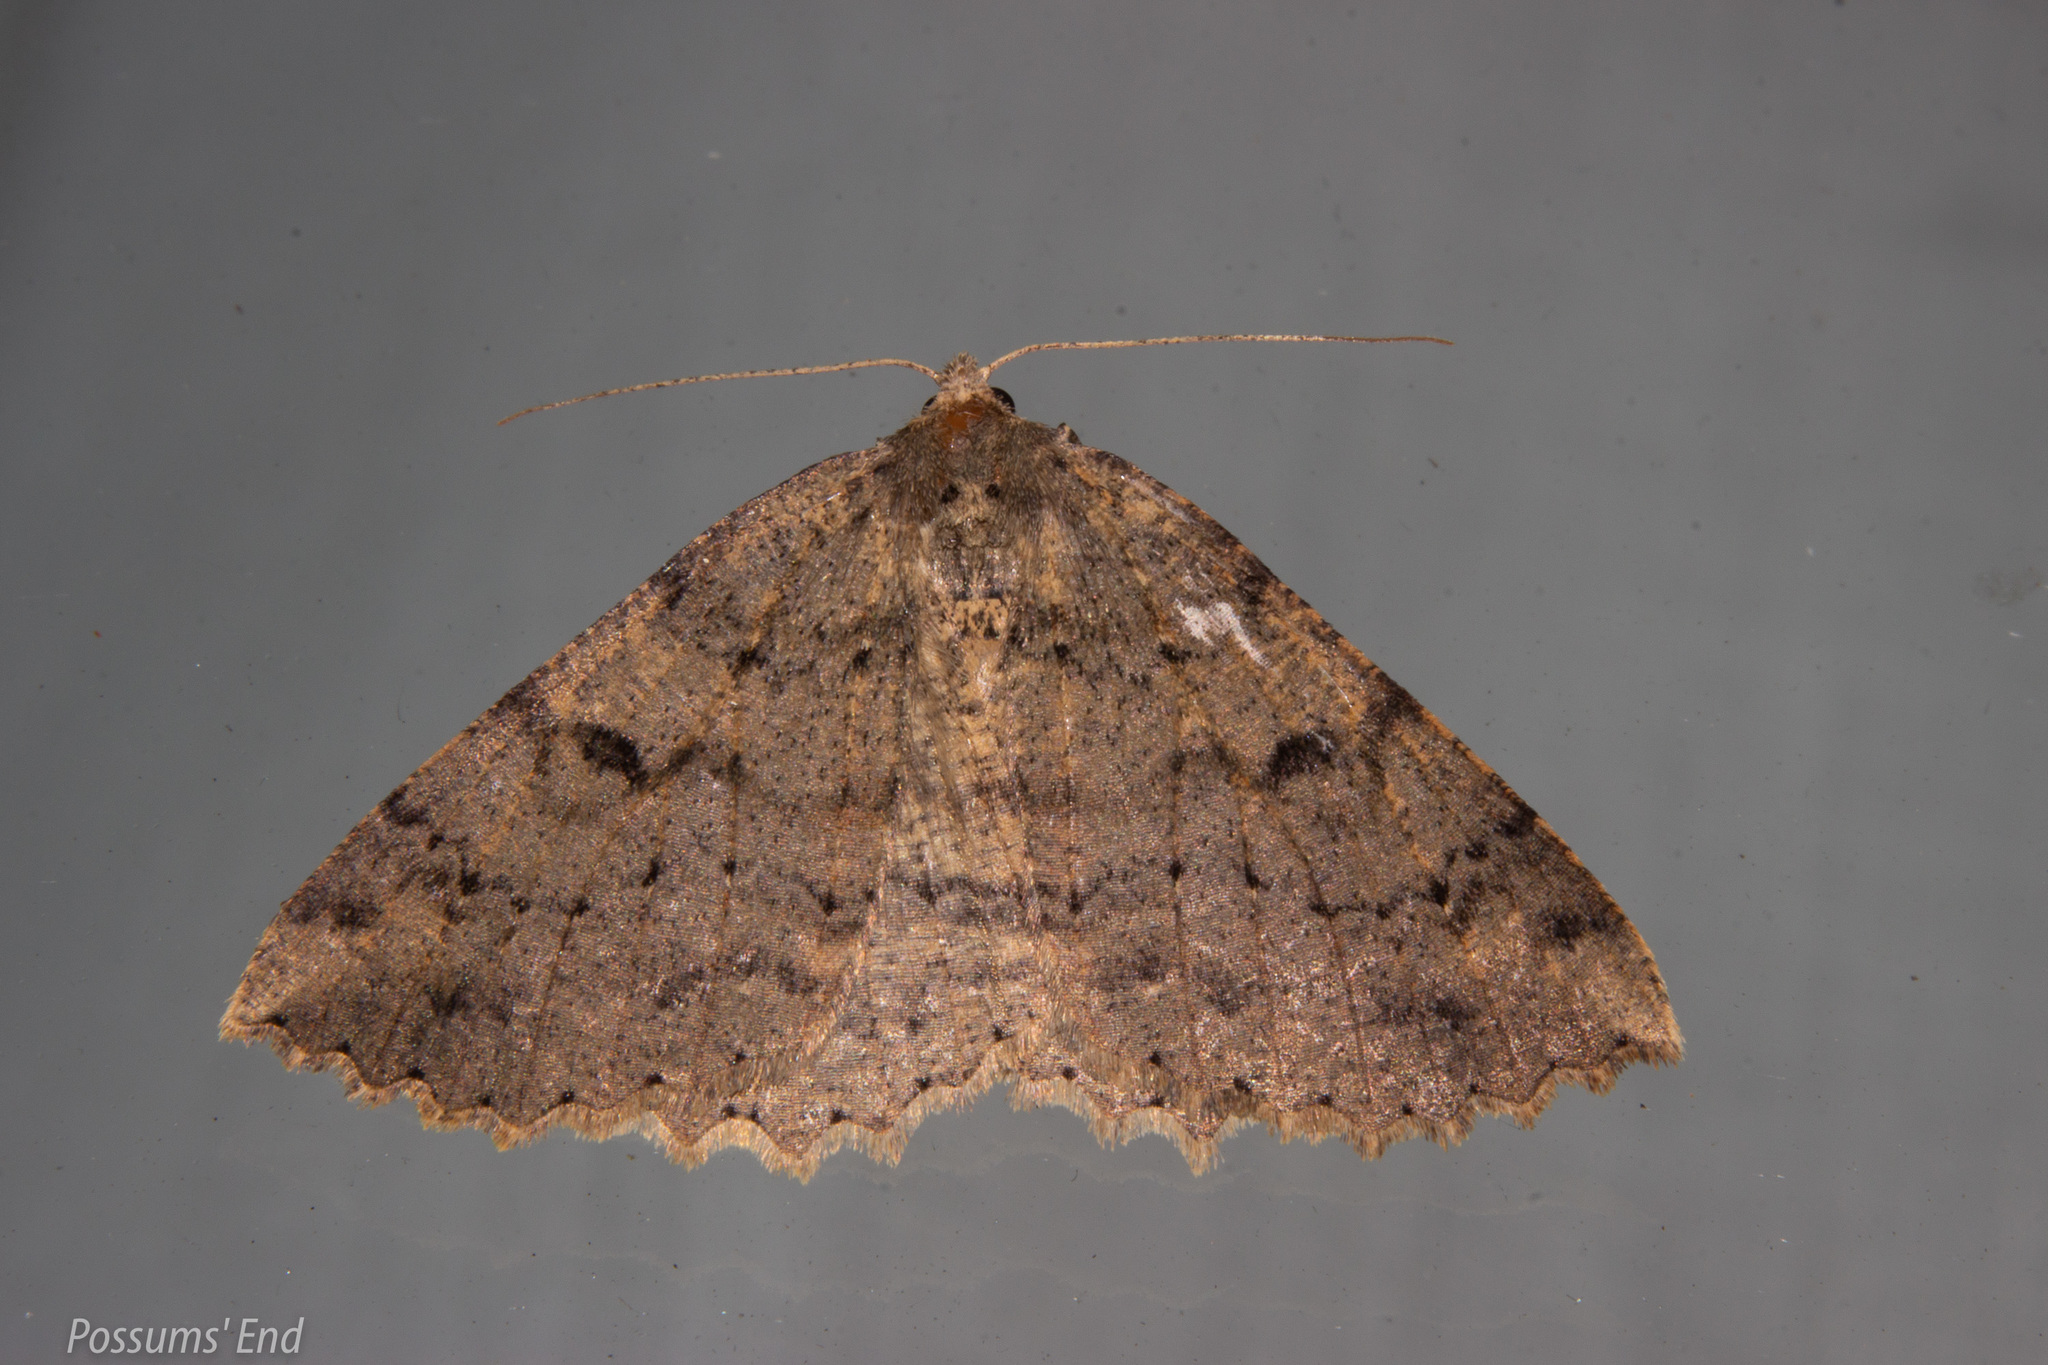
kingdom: Animalia
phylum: Arthropoda
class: Insecta
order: Lepidoptera
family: Geometridae
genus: Cleora
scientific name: Cleora scriptaria
